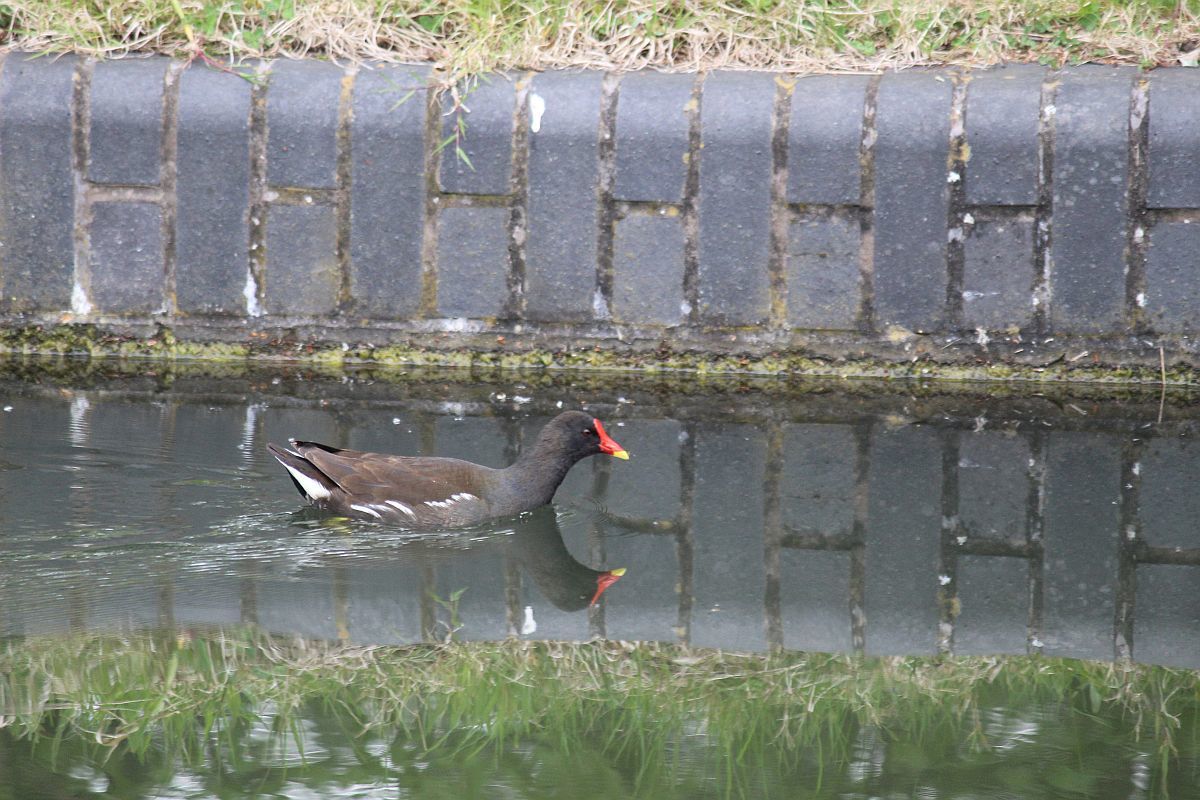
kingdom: Animalia
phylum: Chordata
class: Aves
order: Gruiformes
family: Rallidae
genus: Gallinula
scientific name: Gallinula chloropus
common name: Common moorhen
